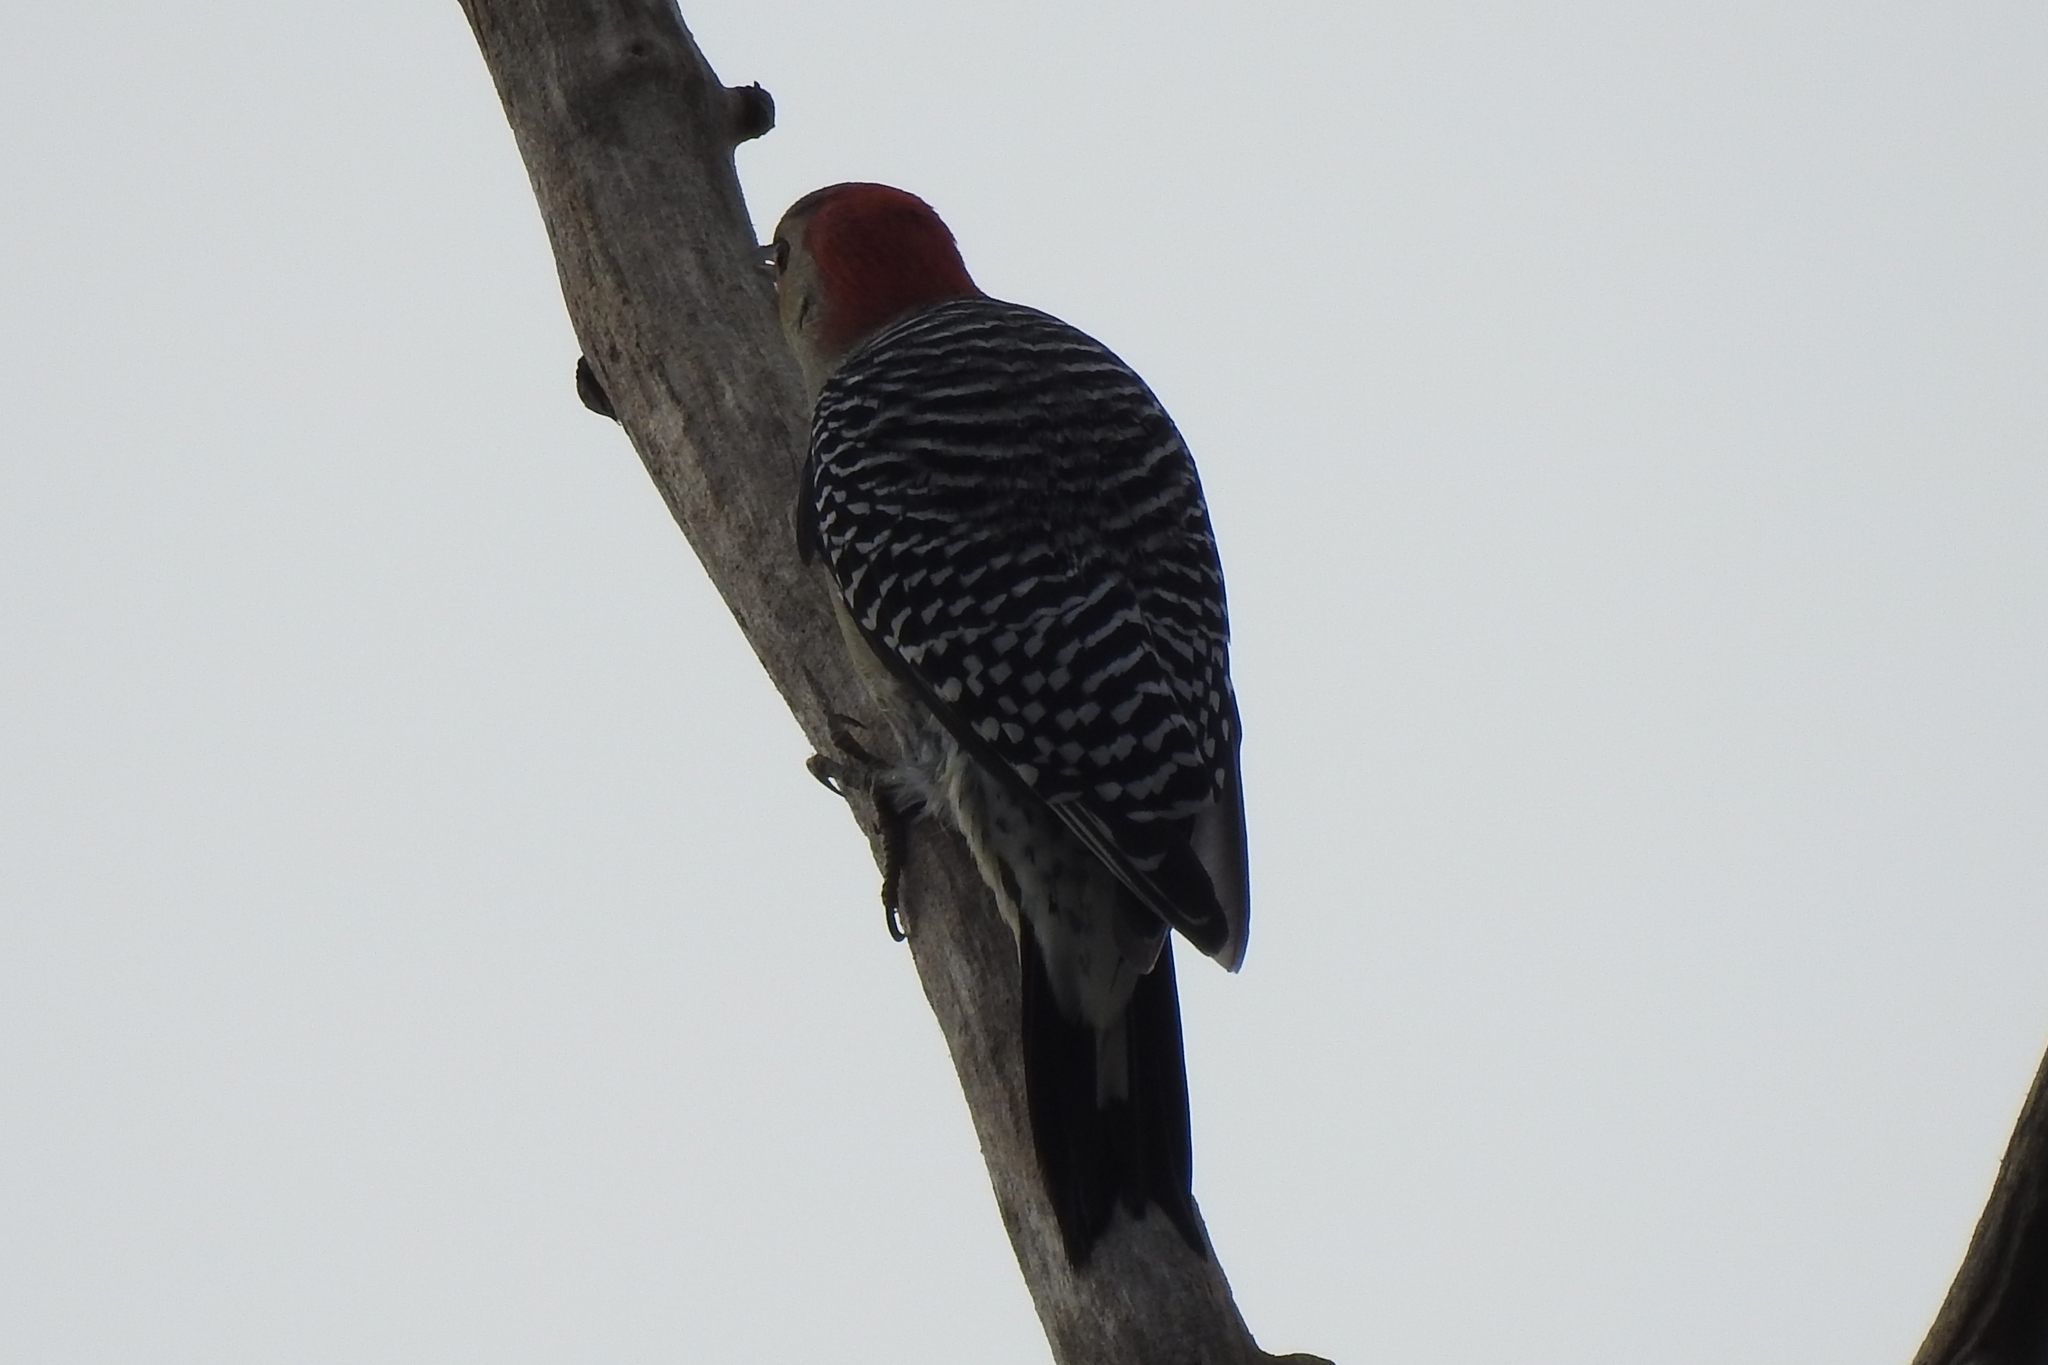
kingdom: Animalia
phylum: Chordata
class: Aves
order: Piciformes
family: Picidae
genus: Melanerpes
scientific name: Melanerpes carolinus
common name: Red-bellied woodpecker
